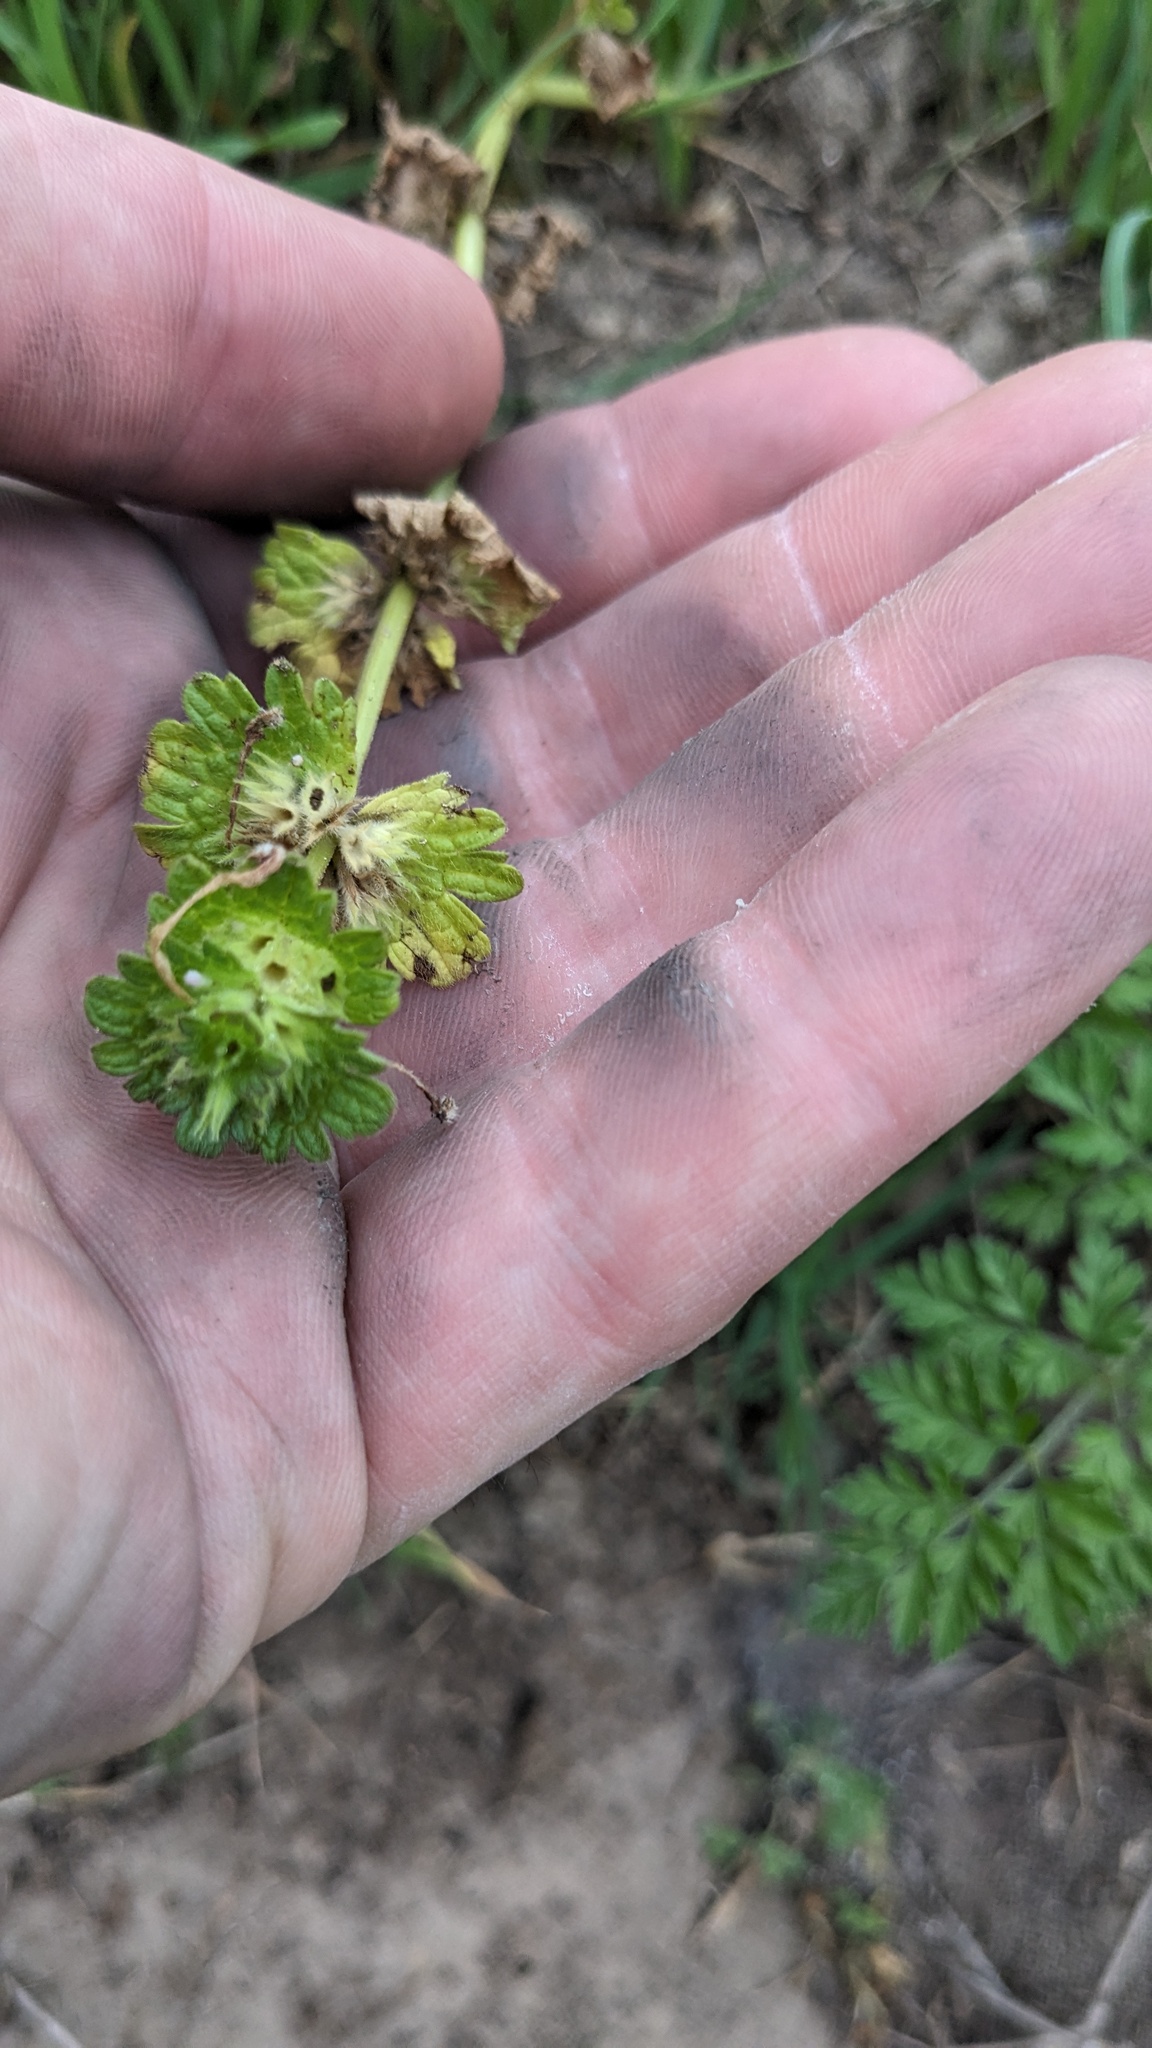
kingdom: Plantae
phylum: Tracheophyta
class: Magnoliopsida
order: Lamiales
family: Lamiaceae
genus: Lamium
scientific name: Lamium amplexicaule
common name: Henbit dead-nettle
